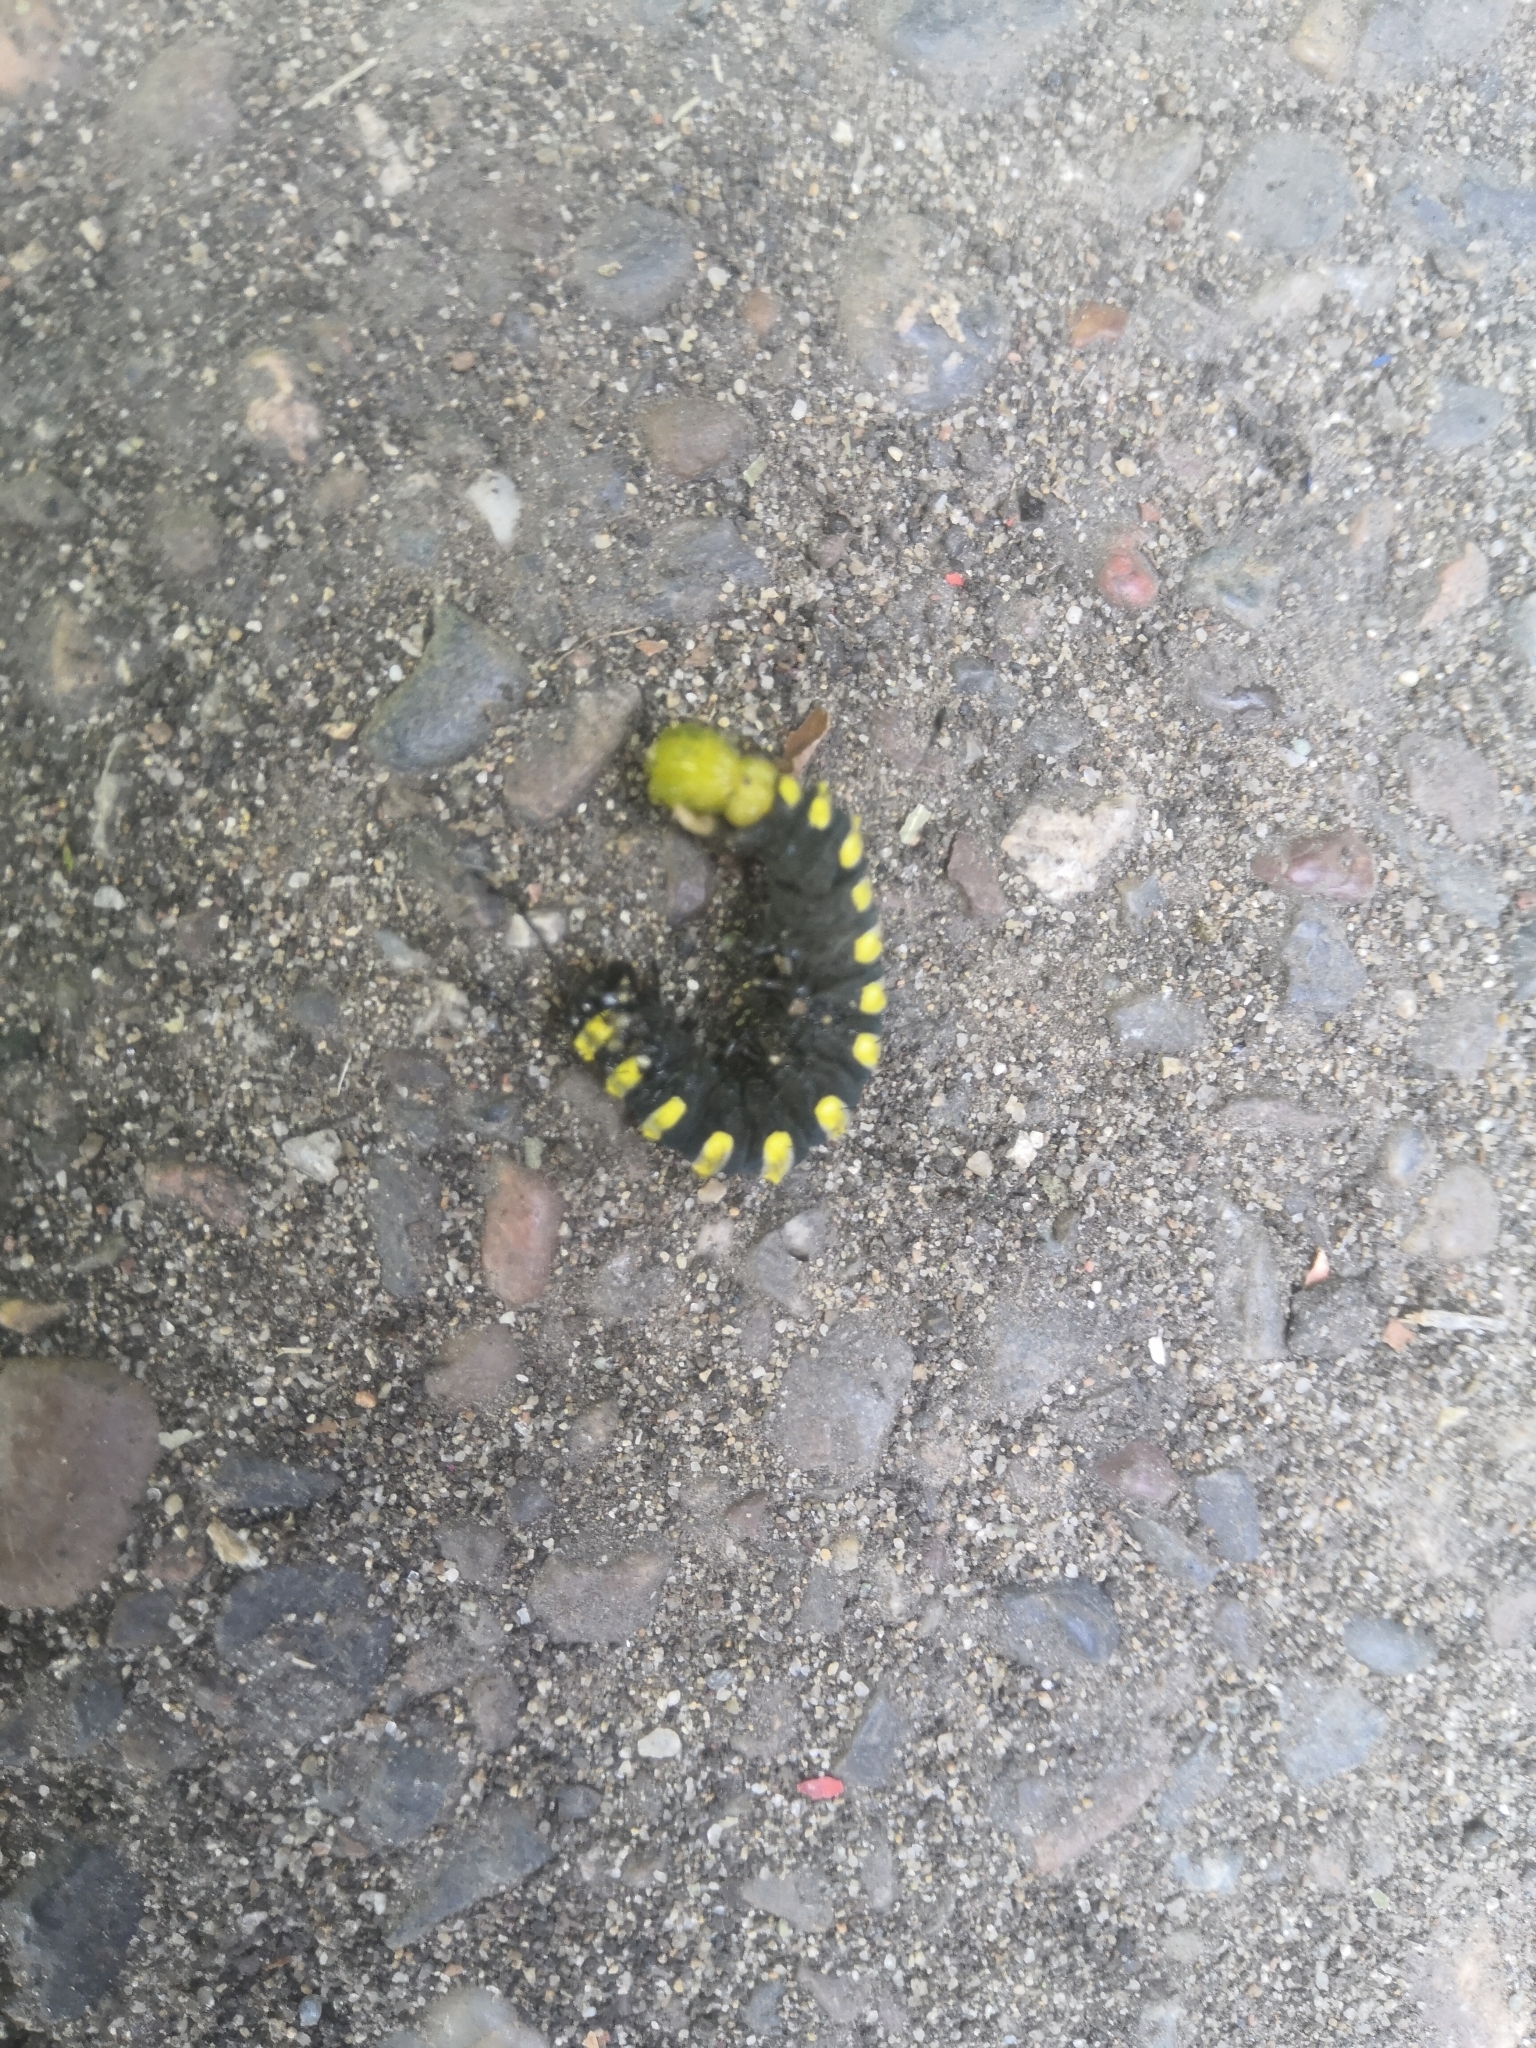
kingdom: Animalia
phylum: Arthropoda
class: Insecta
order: Lepidoptera
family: Noctuidae
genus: Acronicta
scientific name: Acronicta alni
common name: Alder moth
